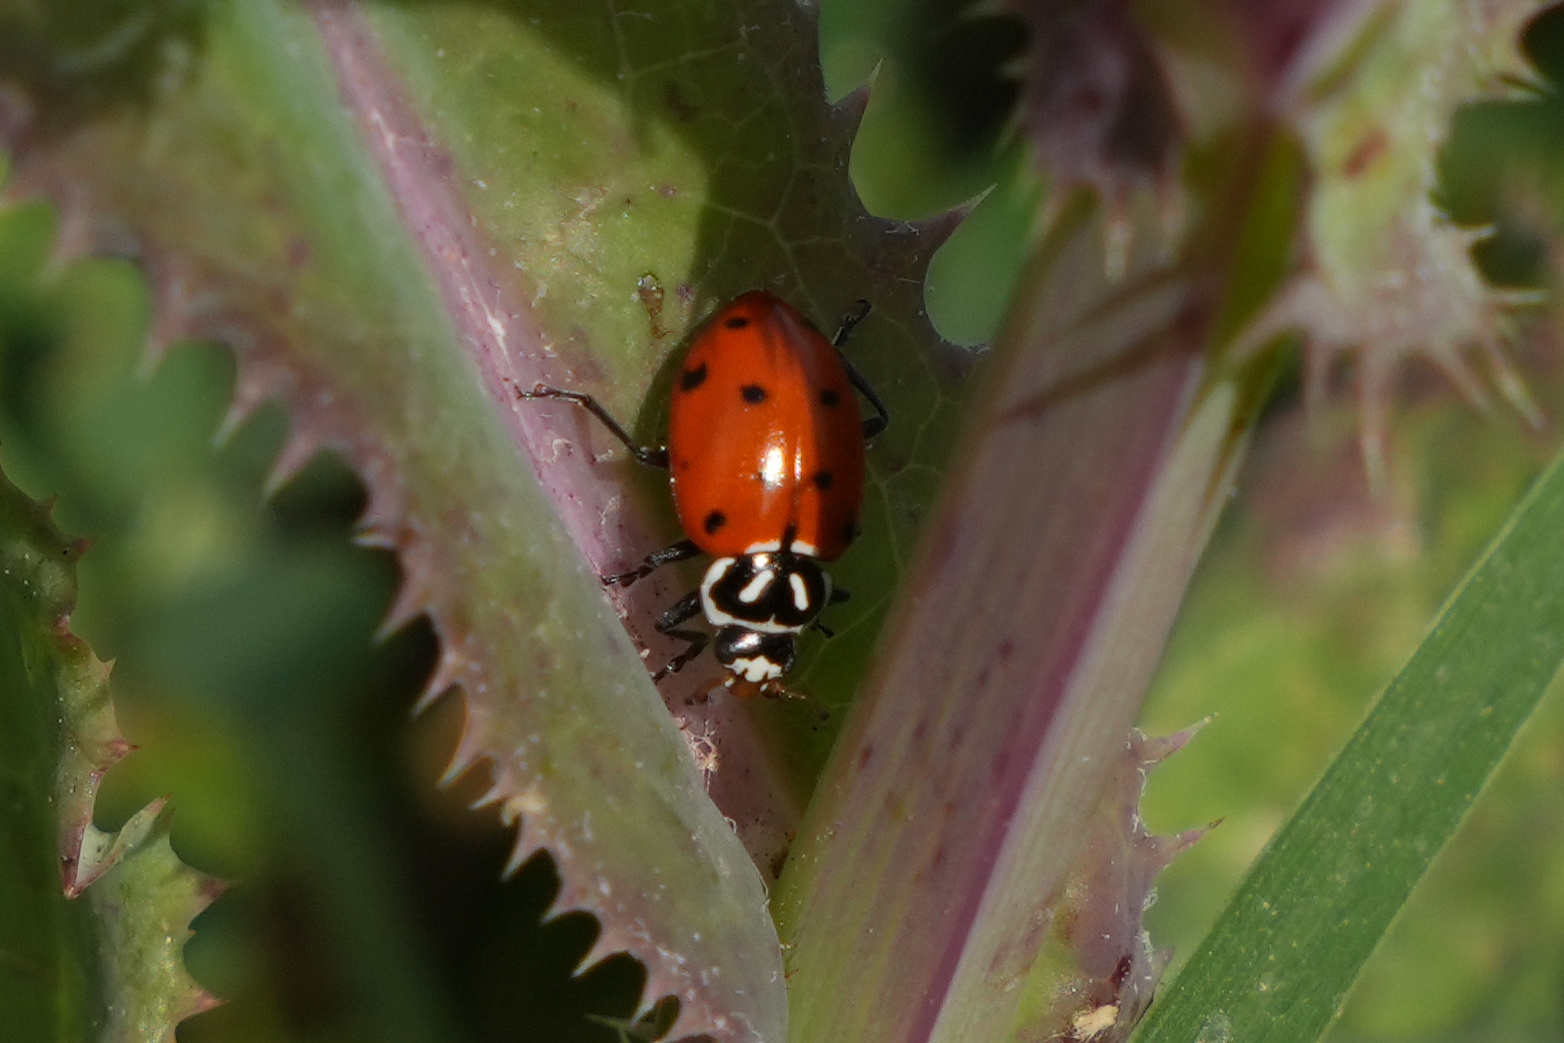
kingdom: Animalia
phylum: Arthropoda
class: Insecta
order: Coleoptera
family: Coccinellidae
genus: Hippodamia
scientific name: Hippodamia convergens
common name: Convergent lady beetle
